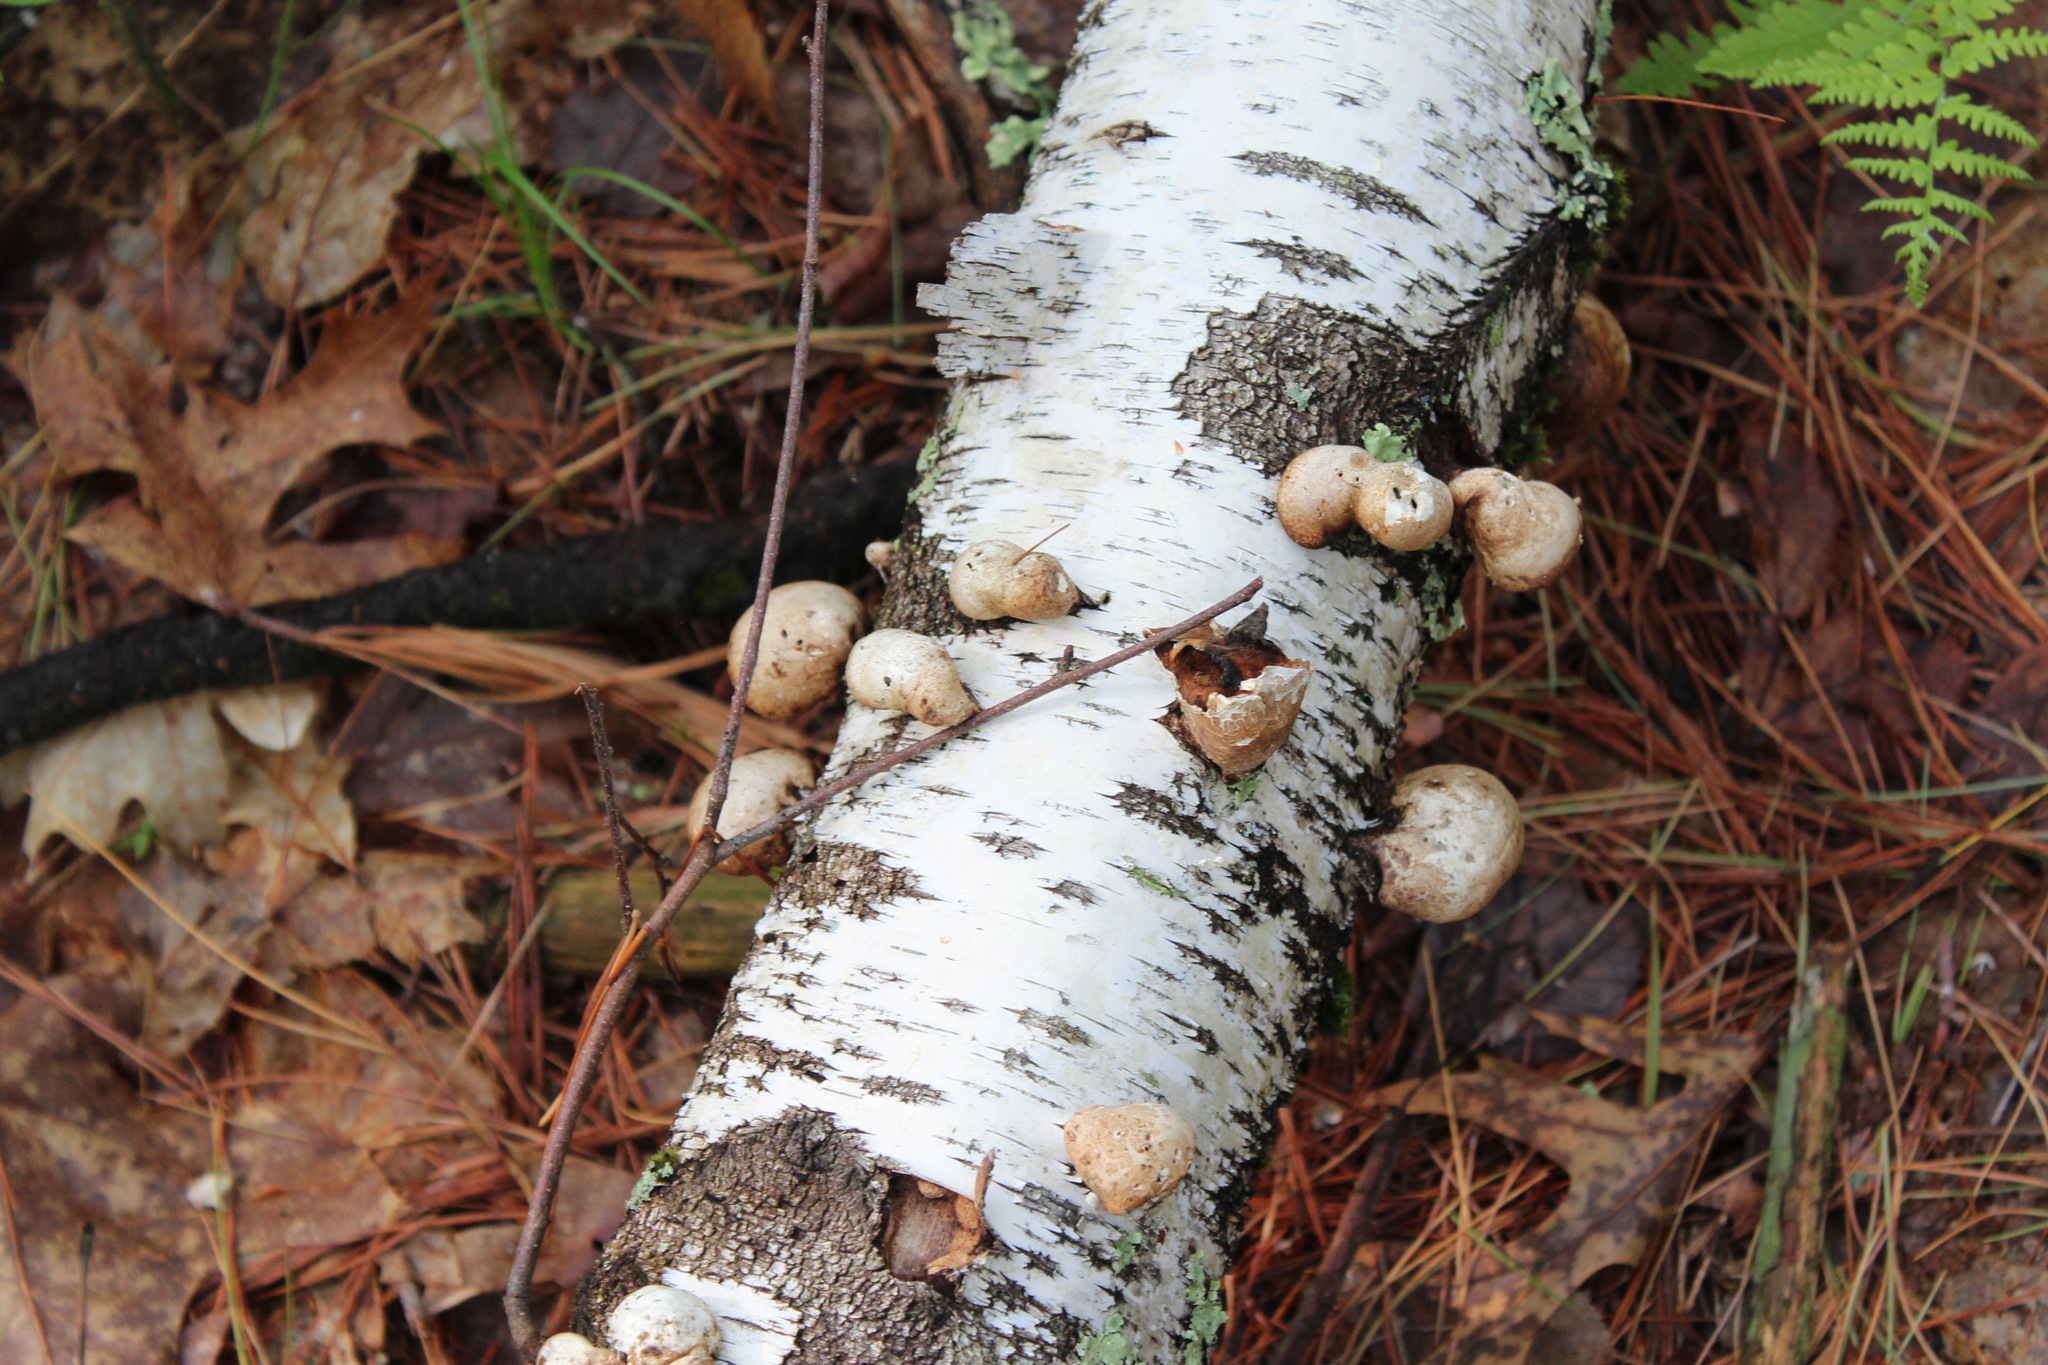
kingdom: Fungi
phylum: Basidiomycota
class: Agaricomycetes
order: Polyporales
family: Fomitopsidaceae
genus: Fomitopsis
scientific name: Fomitopsis betulina
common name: Birch polypore
